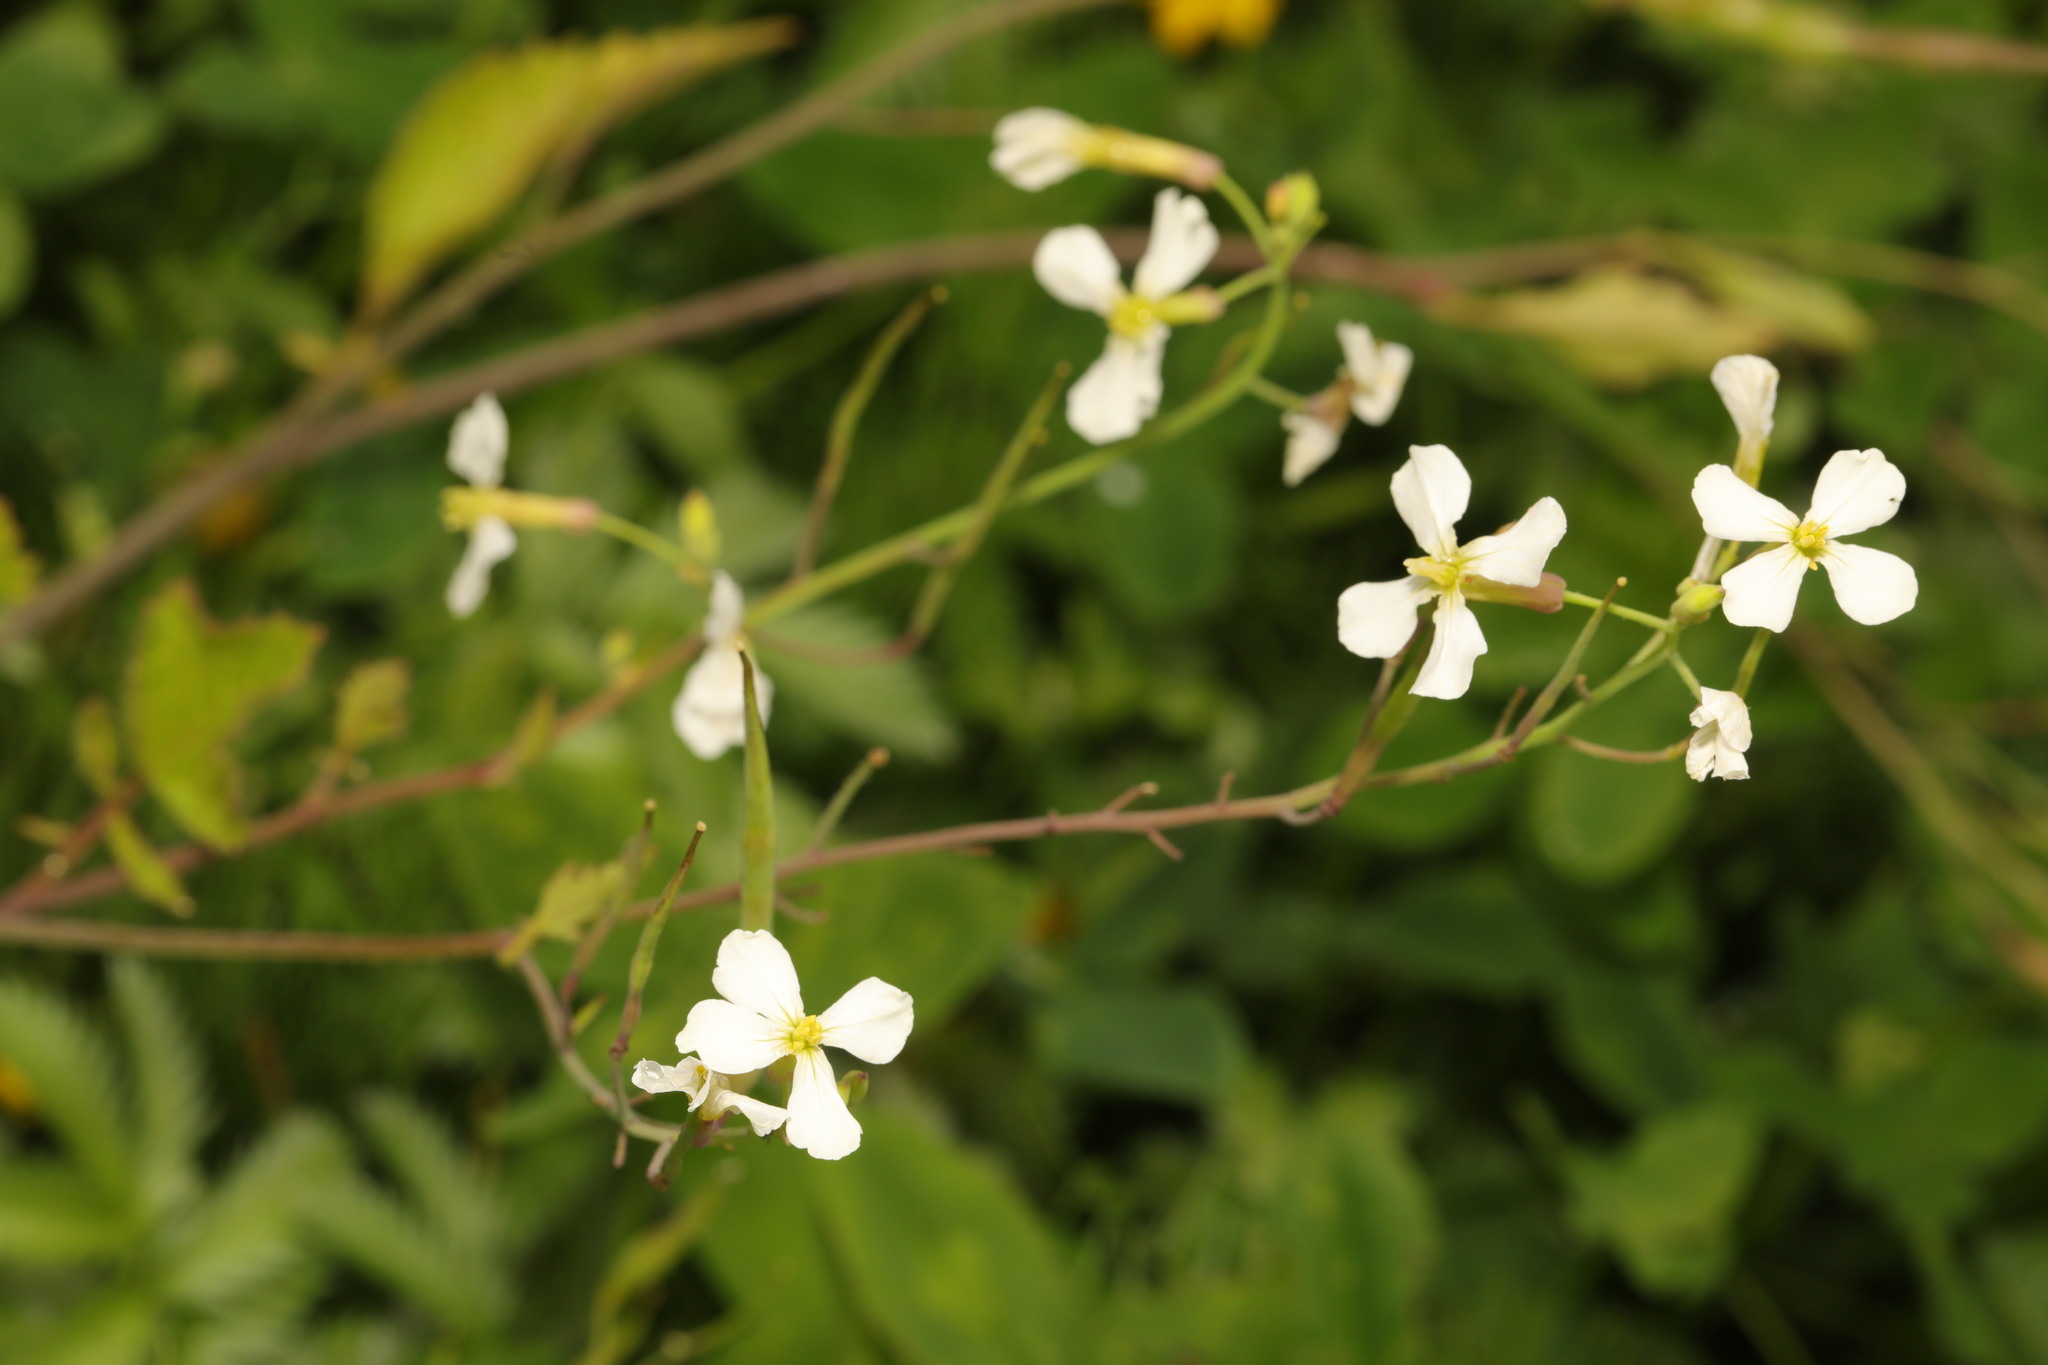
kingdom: Plantae
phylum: Tracheophyta
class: Magnoliopsida
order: Brassicales
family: Brassicaceae
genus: Raphanus
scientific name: Raphanus raphanistrum
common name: Wild radish
